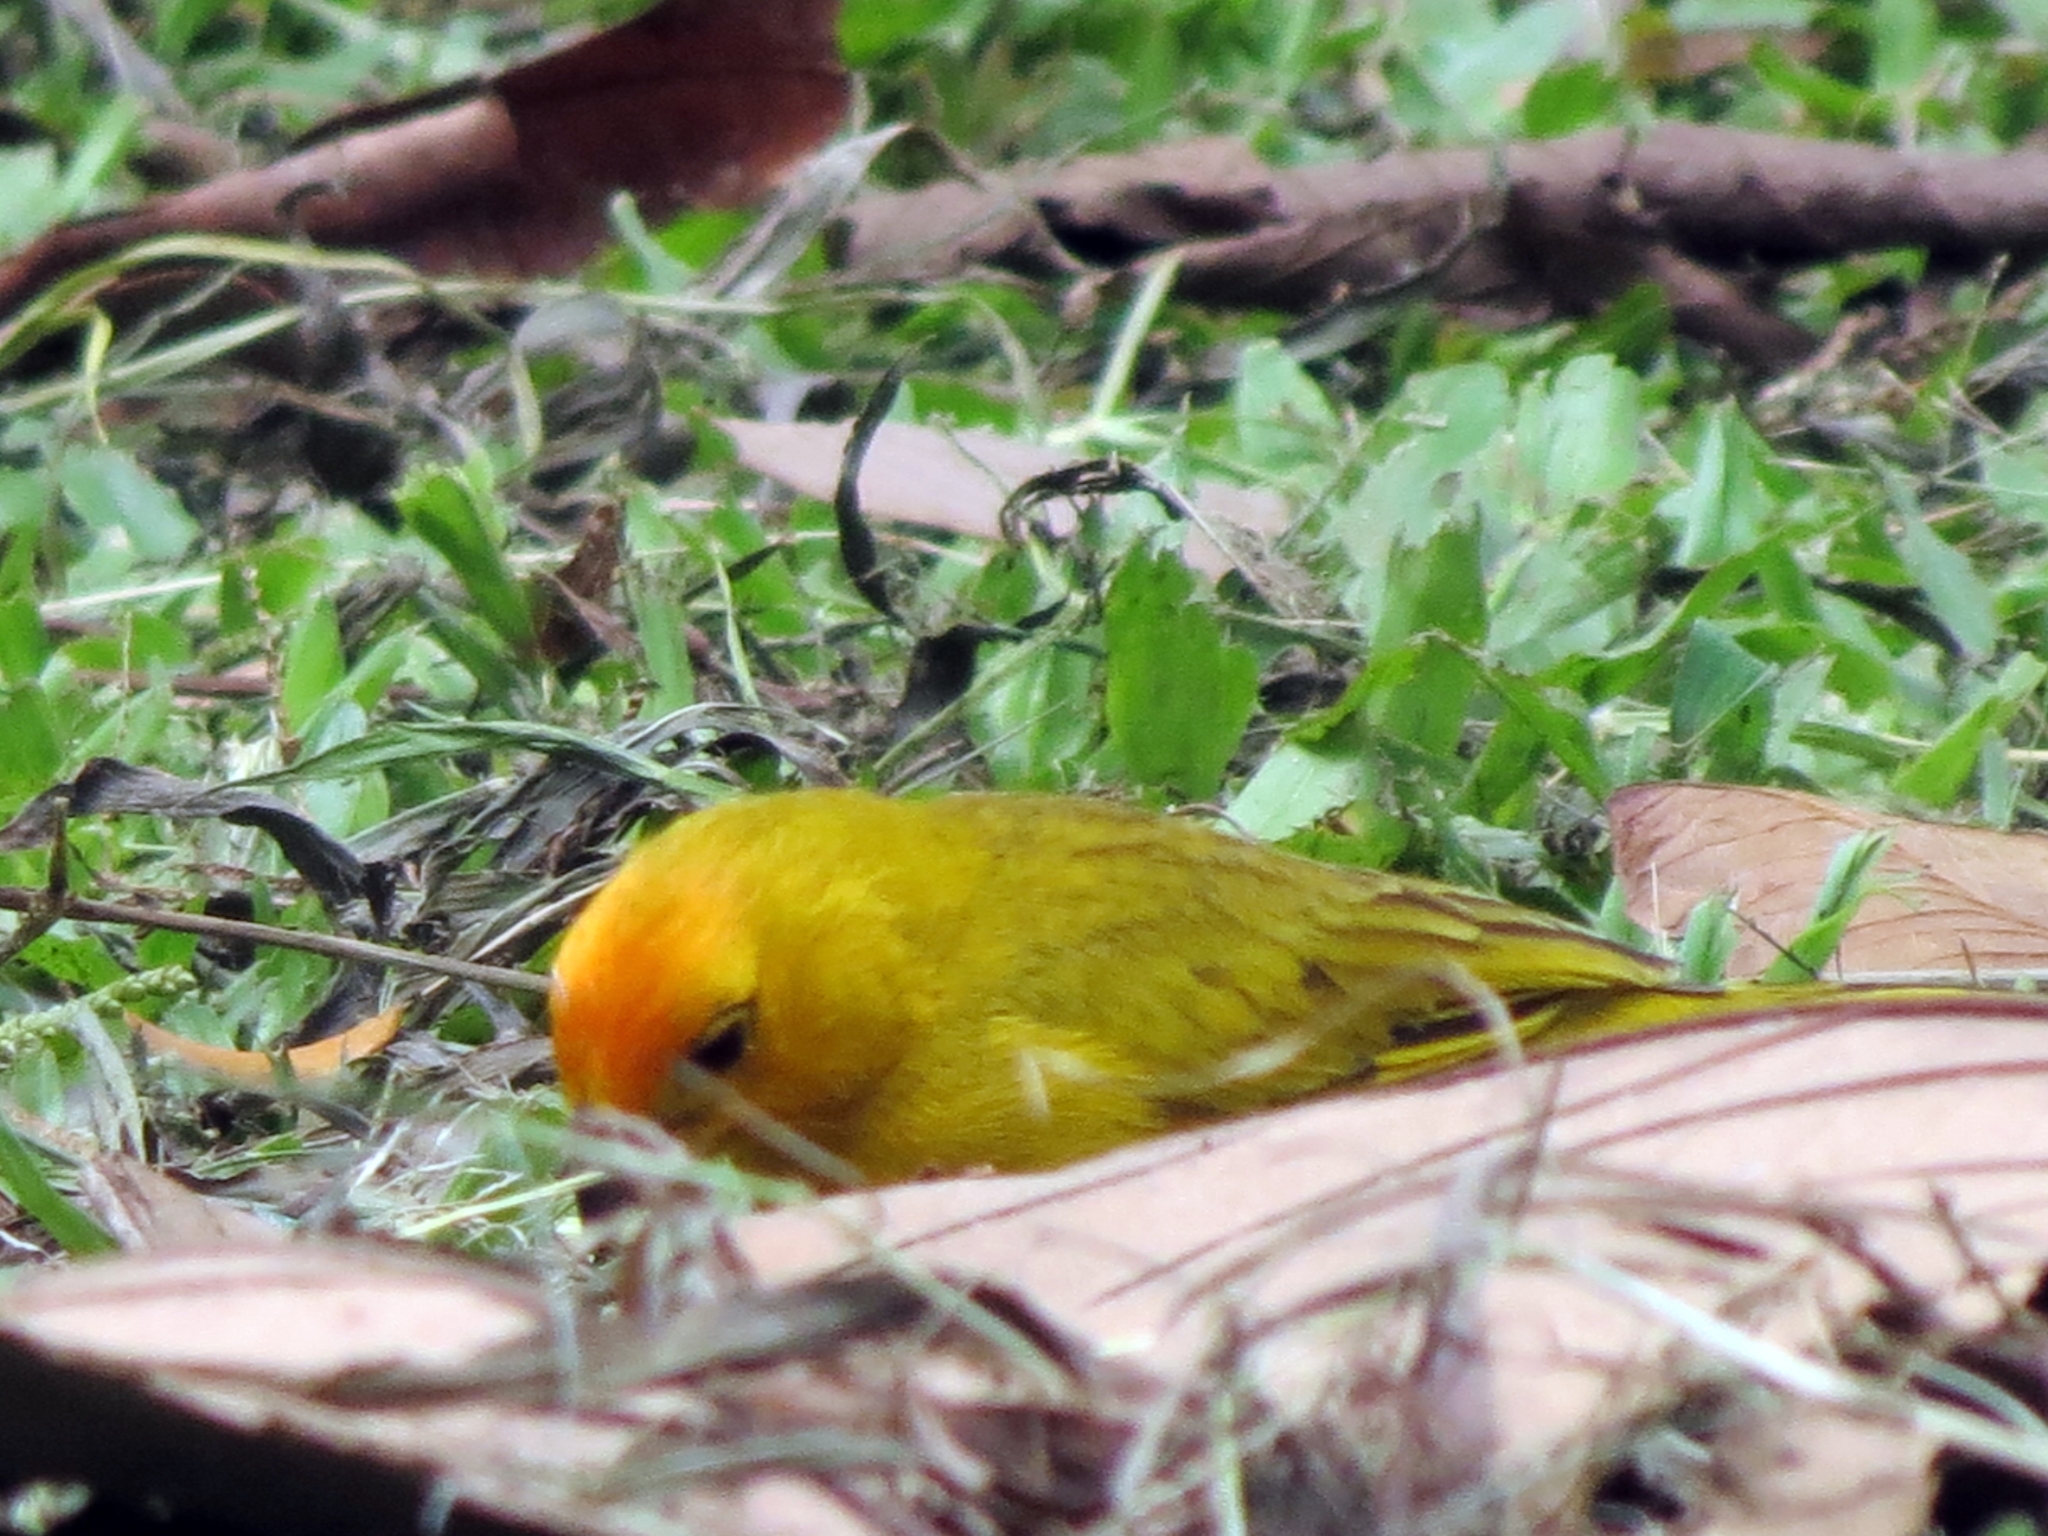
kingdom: Animalia
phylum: Chordata
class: Aves
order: Passeriformes
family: Thraupidae
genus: Sicalis
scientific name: Sicalis flaveola
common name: Saffron finch
